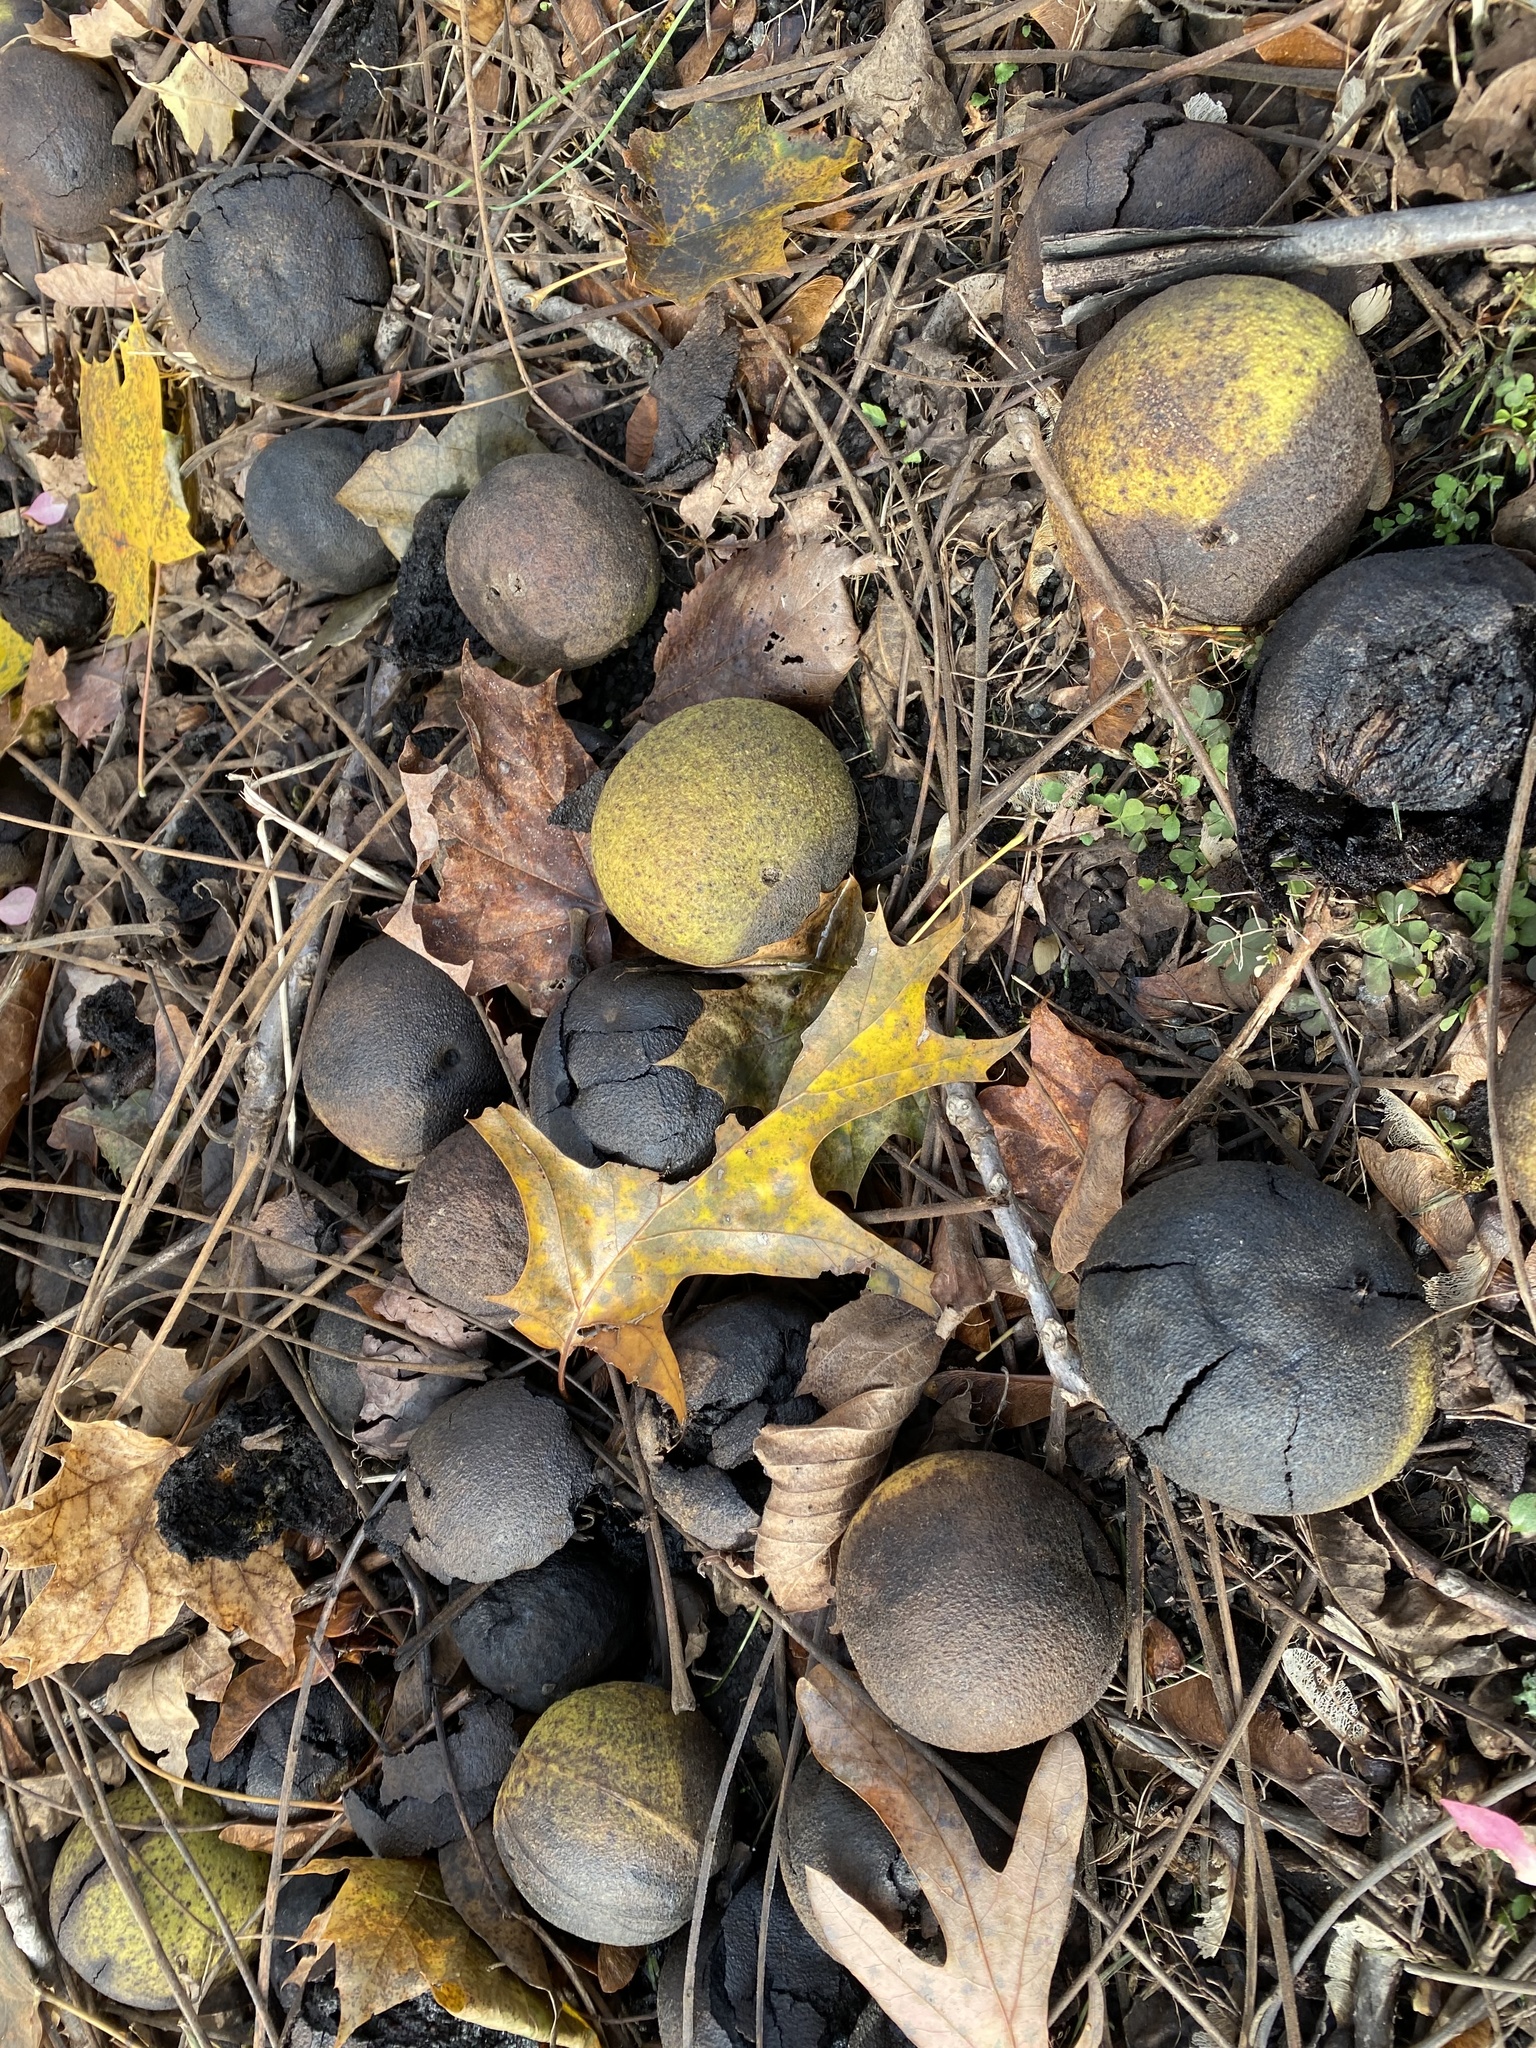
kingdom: Plantae
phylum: Tracheophyta
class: Magnoliopsida
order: Fagales
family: Juglandaceae
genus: Juglans
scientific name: Juglans nigra
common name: Black walnut
